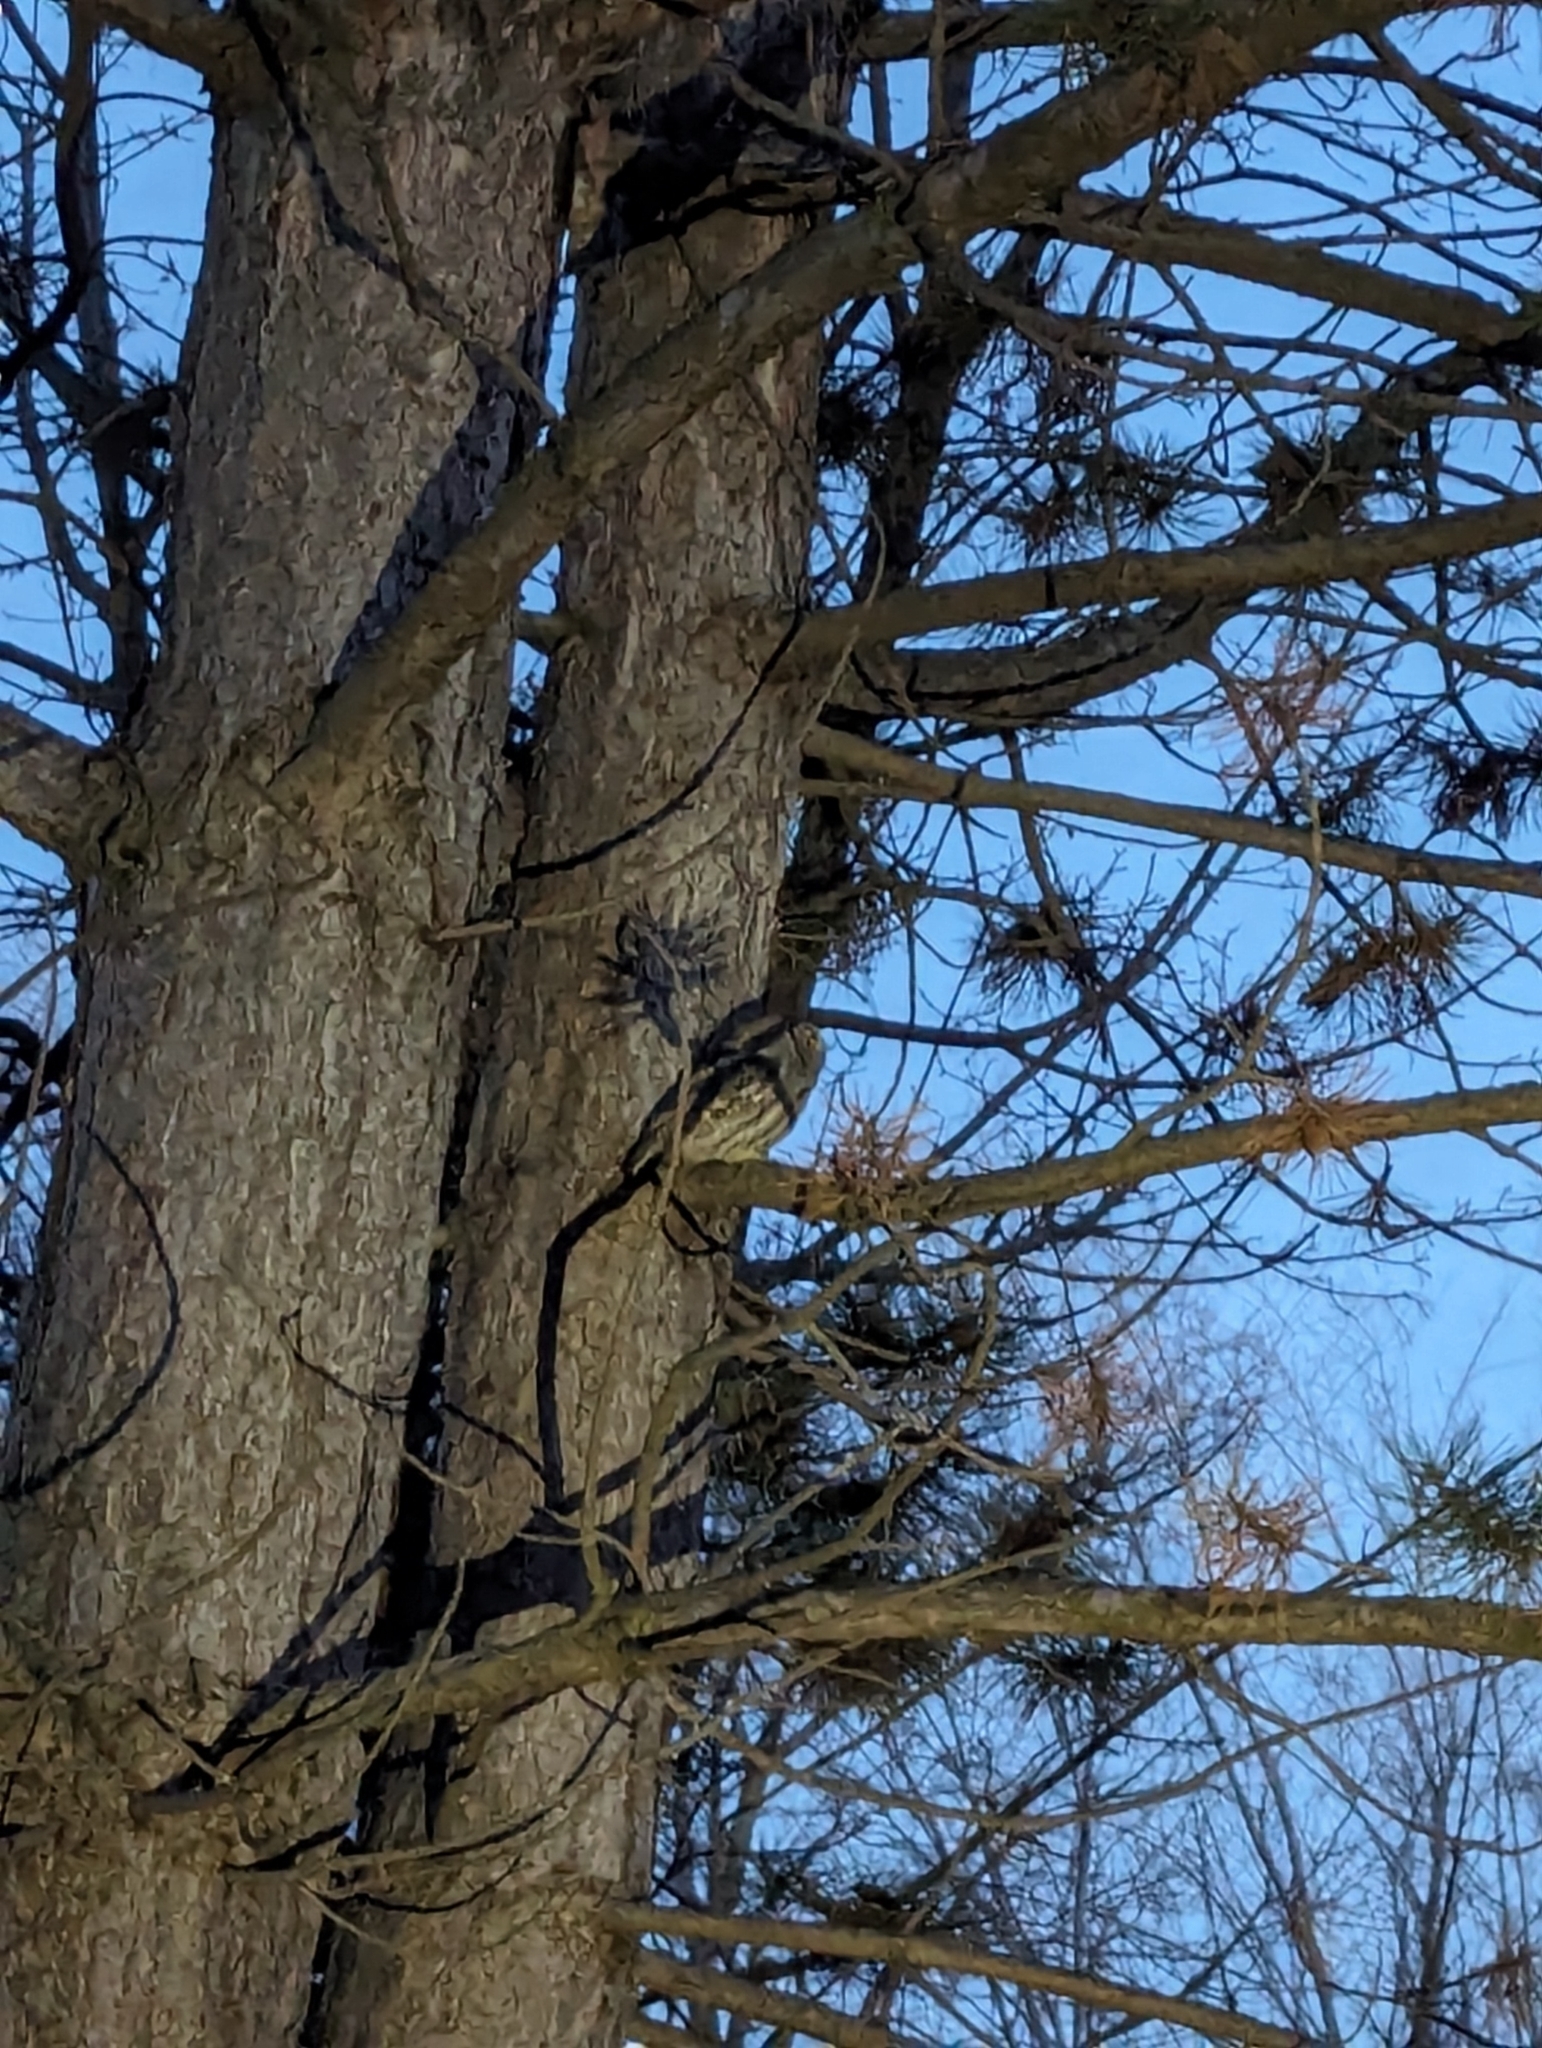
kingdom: Animalia
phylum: Chordata
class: Aves
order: Strigiformes
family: Strigidae
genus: Megascops
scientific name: Megascops kennicottii
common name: Western screech-owl
